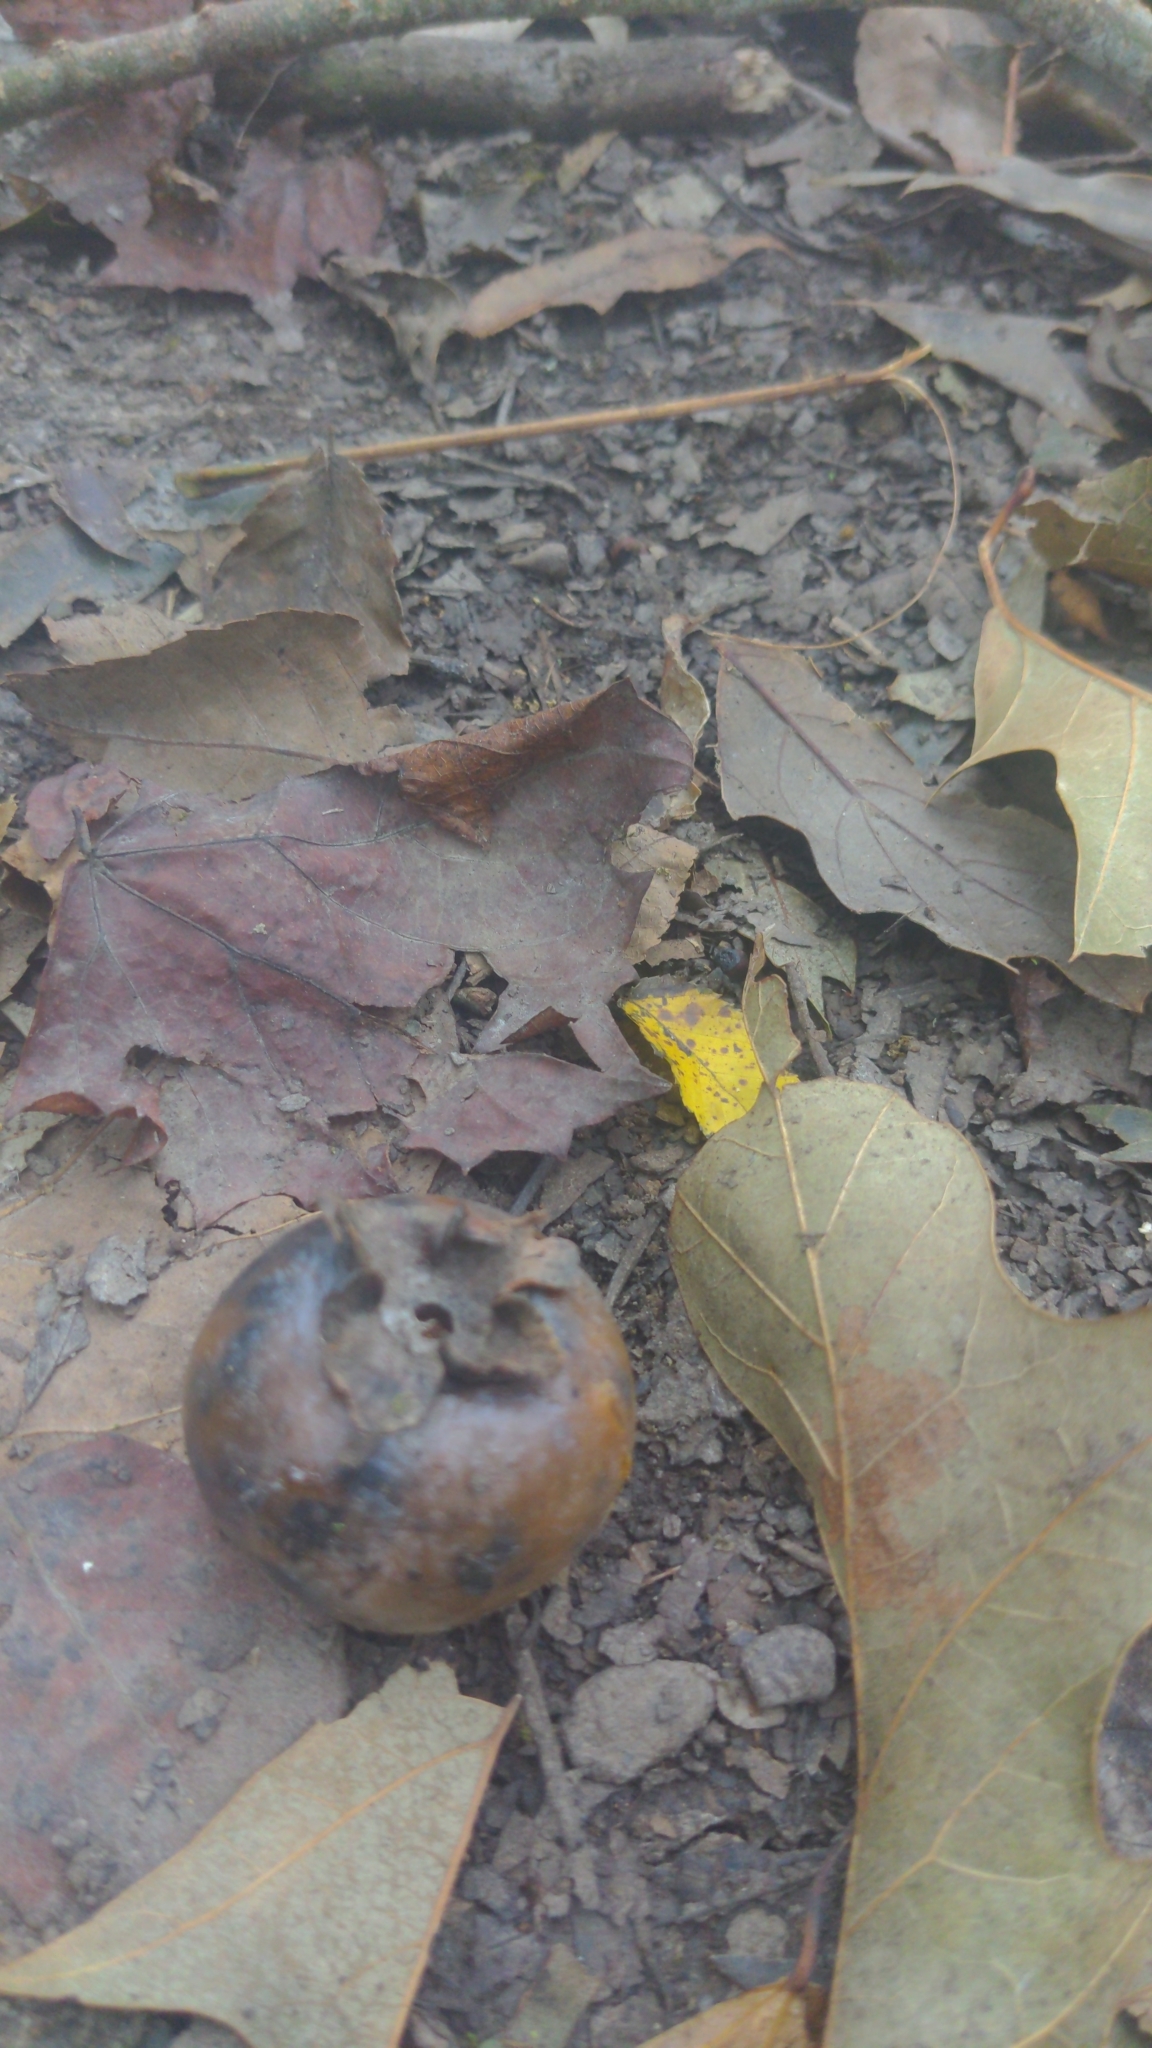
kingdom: Plantae
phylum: Tracheophyta
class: Magnoliopsida
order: Ericales
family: Ebenaceae
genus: Diospyros
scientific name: Diospyros virginiana
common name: Persimmon
